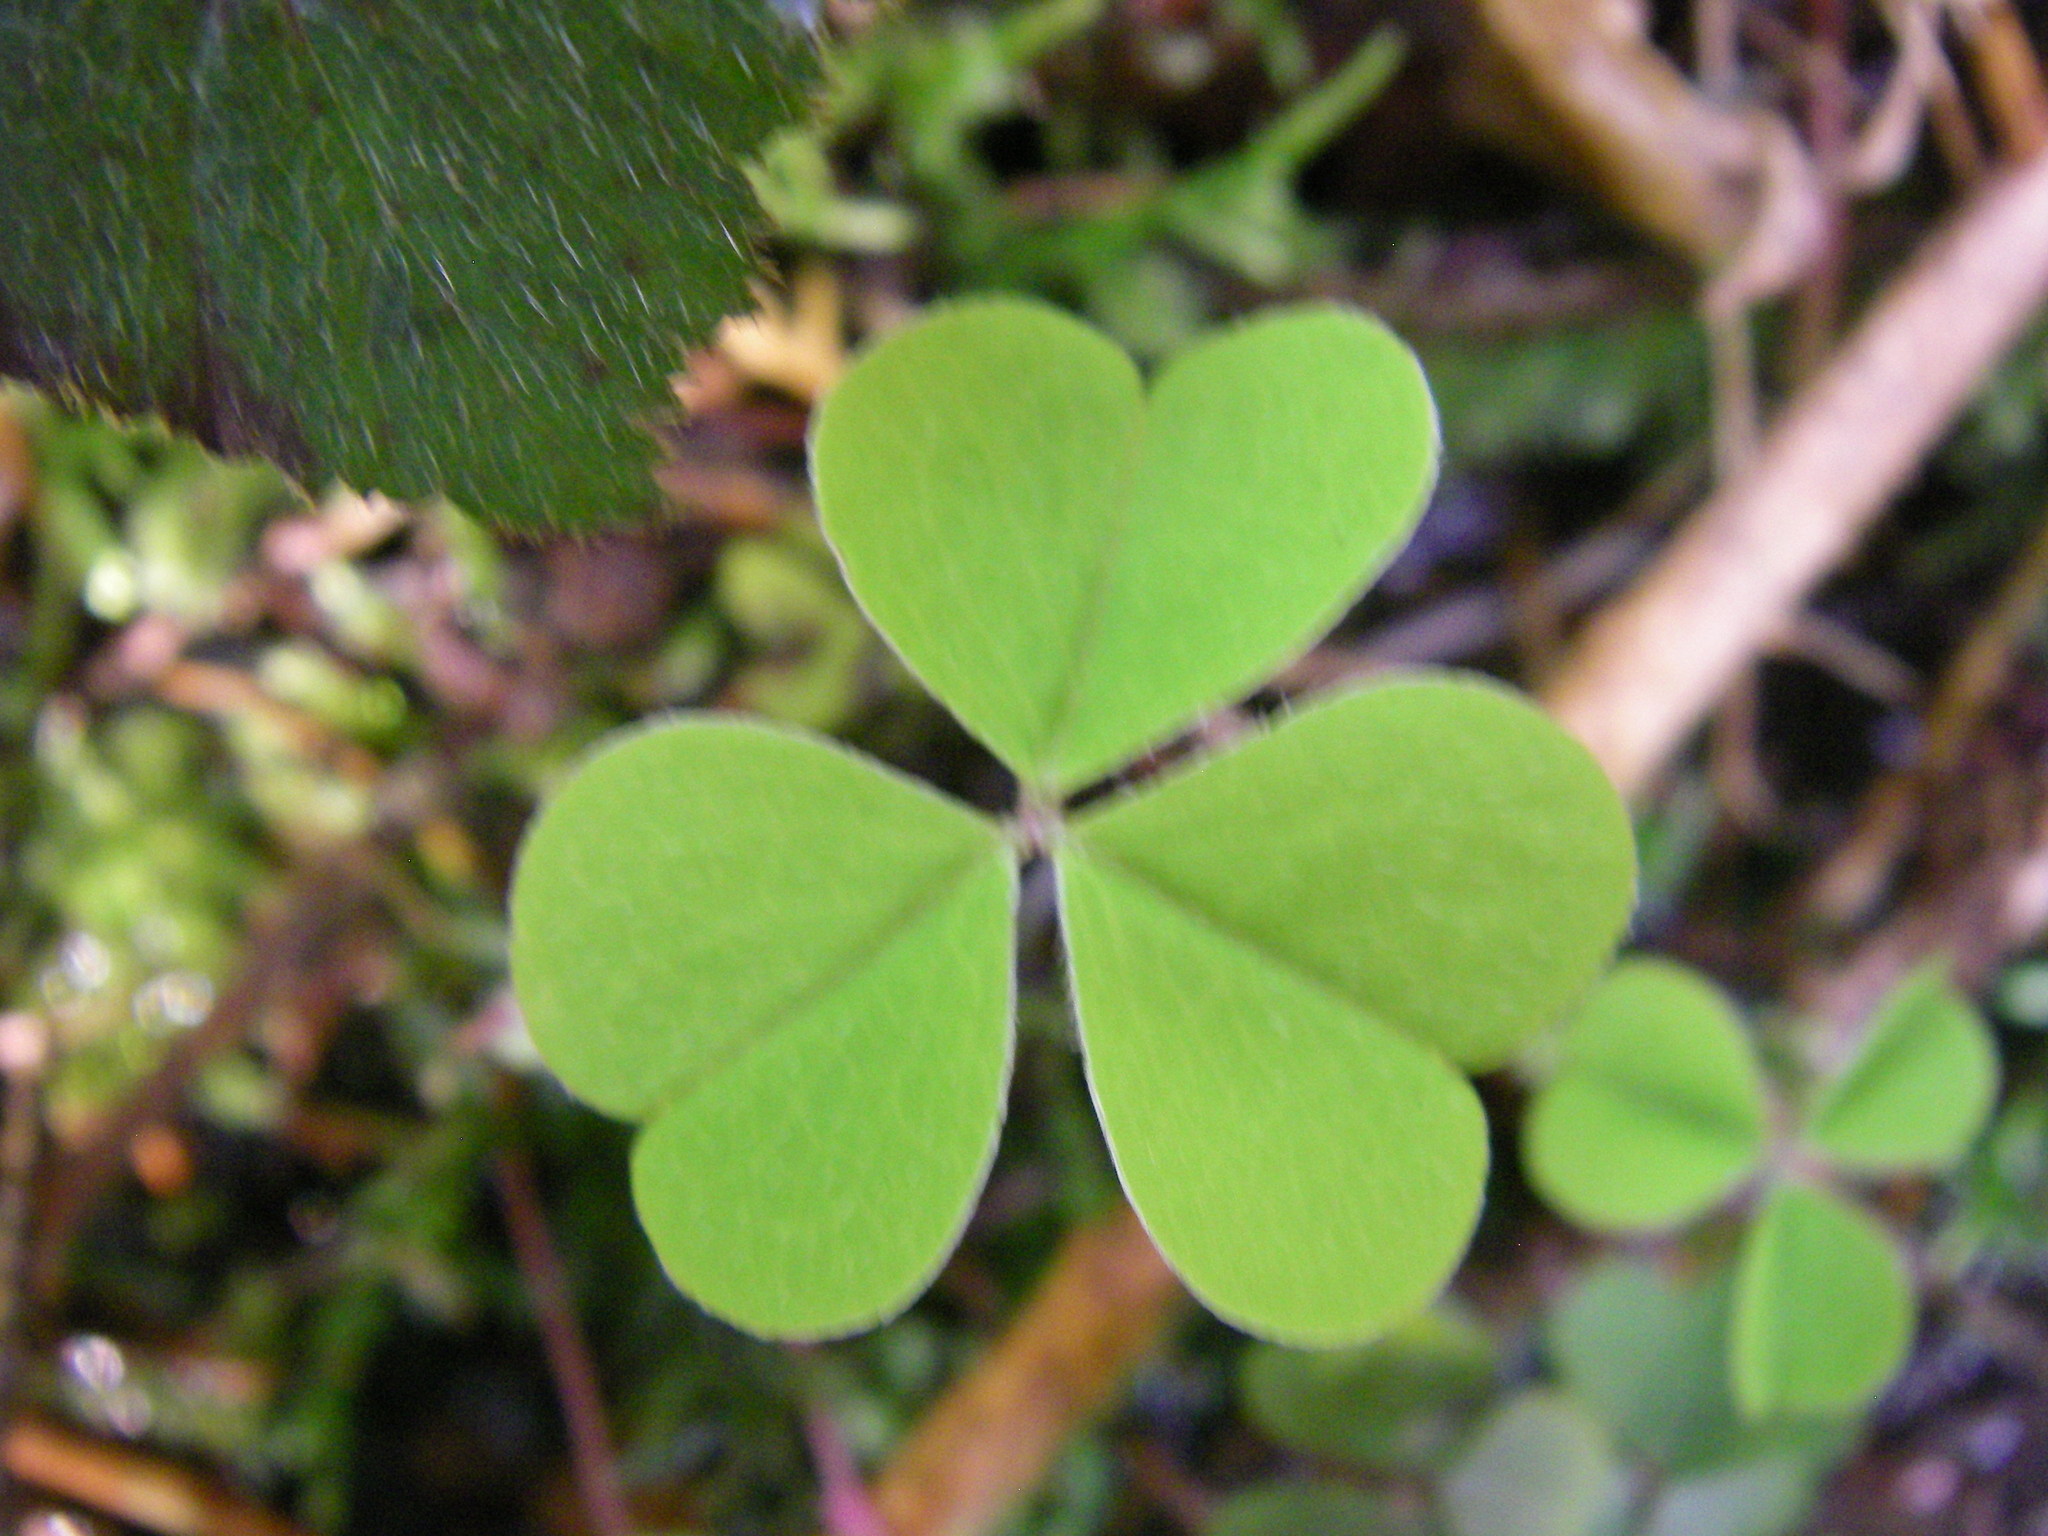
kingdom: Plantae
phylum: Tracheophyta
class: Magnoliopsida
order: Oxalidales
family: Oxalidaceae
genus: Oxalis
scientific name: Oxalis acetosella
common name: Wood-sorrel
